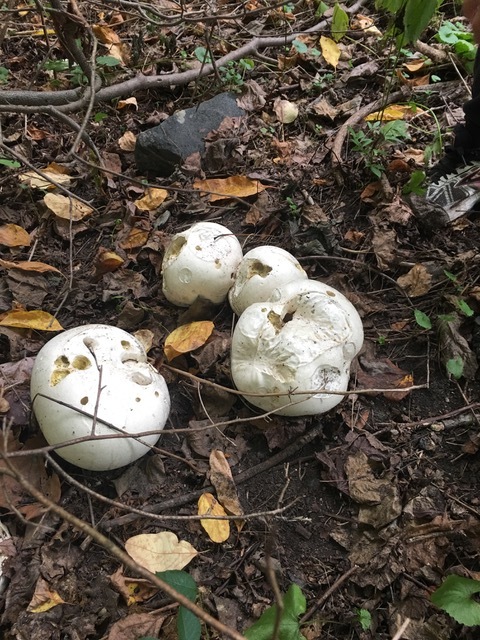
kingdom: Fungi
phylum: Basidiomycota
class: Agaricomycetes
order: Agaricales
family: Lycoperdaceae
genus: Calvatia
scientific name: Calvatia gigantea
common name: Giant puffball
